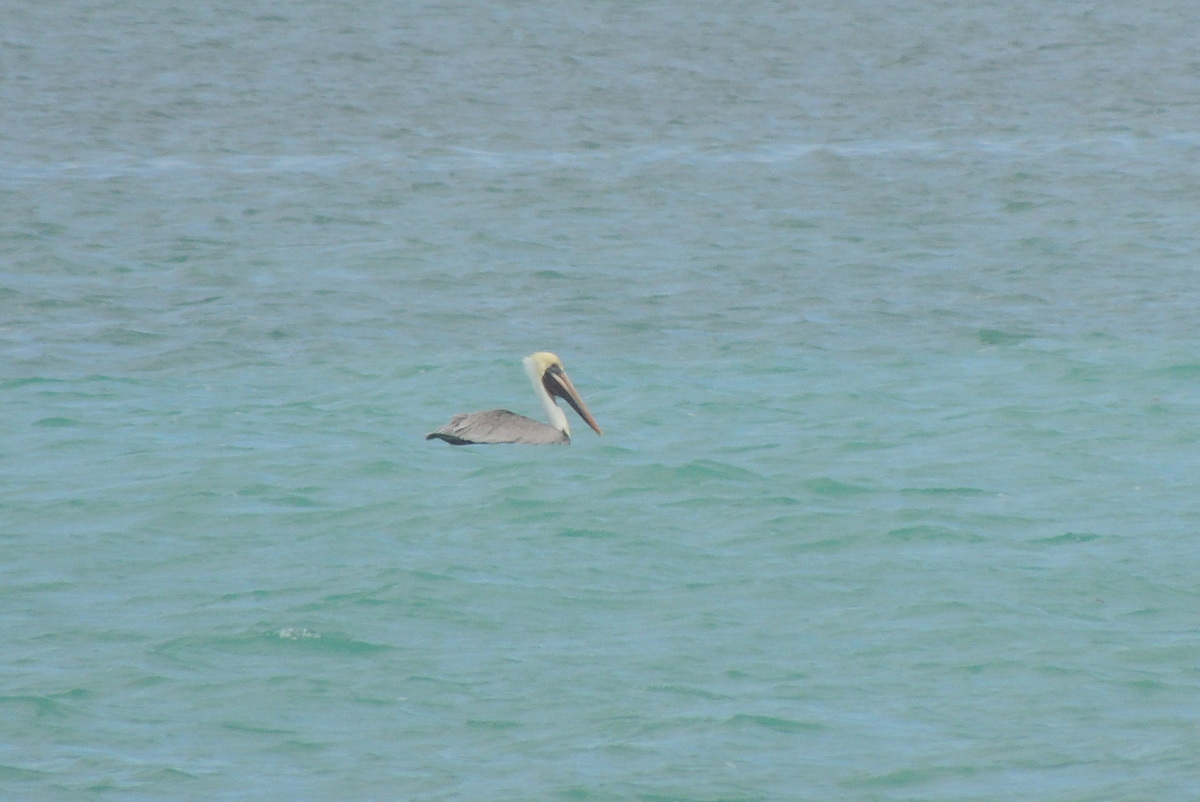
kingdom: Animalia
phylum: Chordata
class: Aves
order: Pelecaniformes
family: Pelecanidae
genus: Pelecanus
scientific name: Pelecanus occidentalis
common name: Brown pelican
